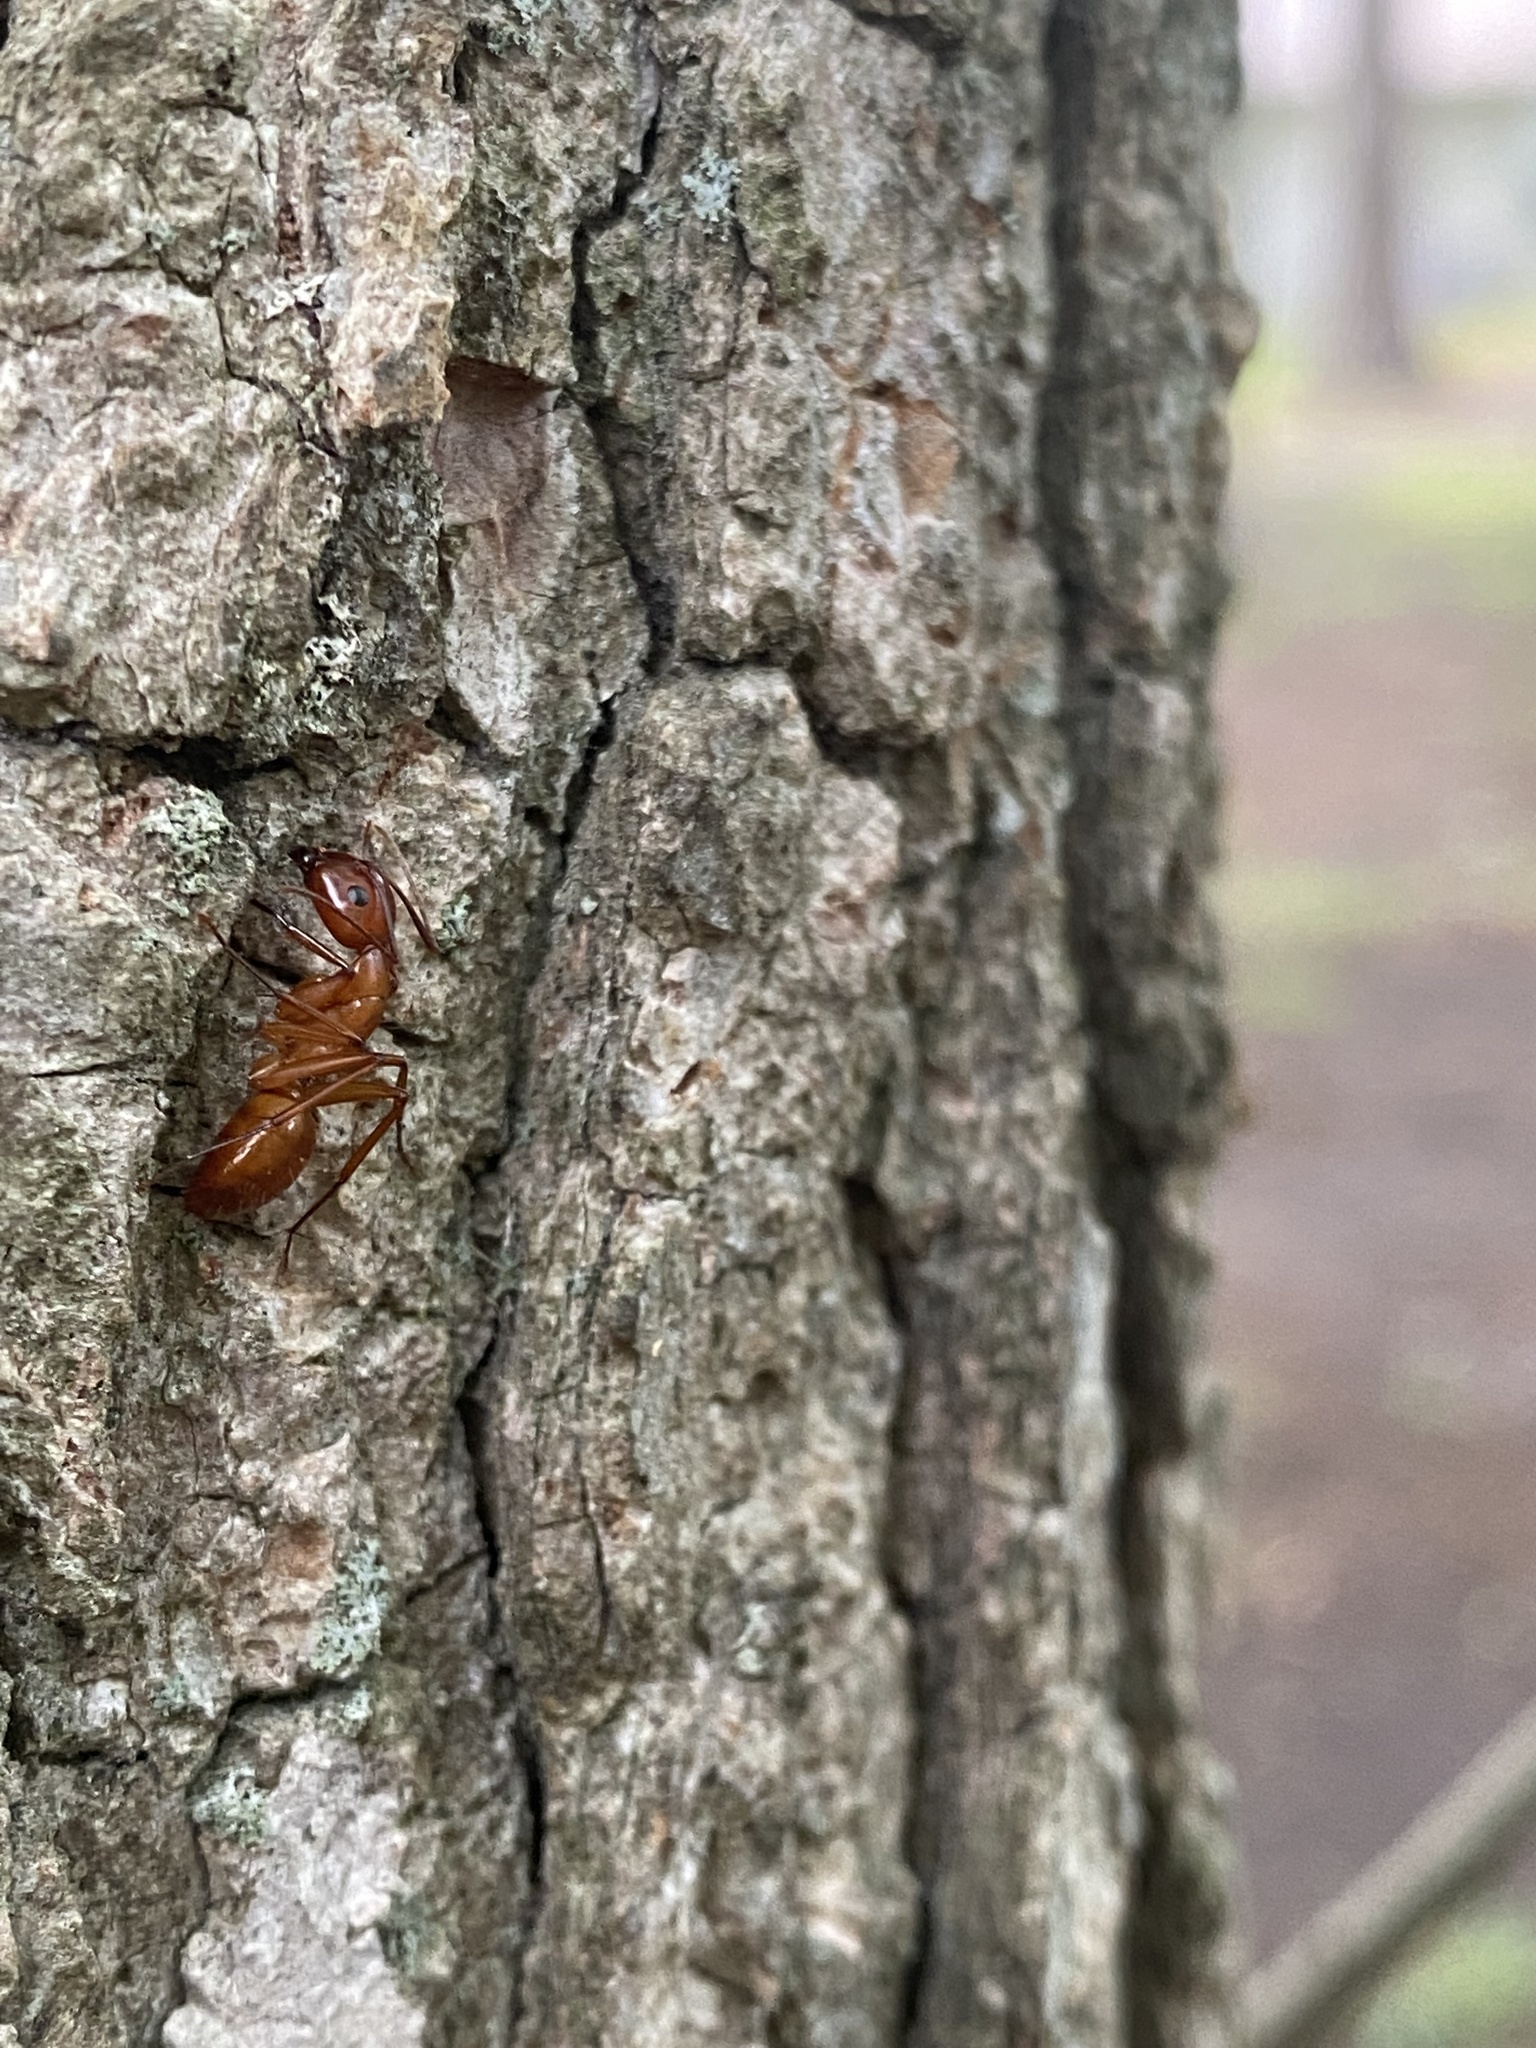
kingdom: Animalia
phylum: Arthropoda
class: Insecta
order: Hymenoptera
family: Formicidae
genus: Camponotus
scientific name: Camponotus castaneus
